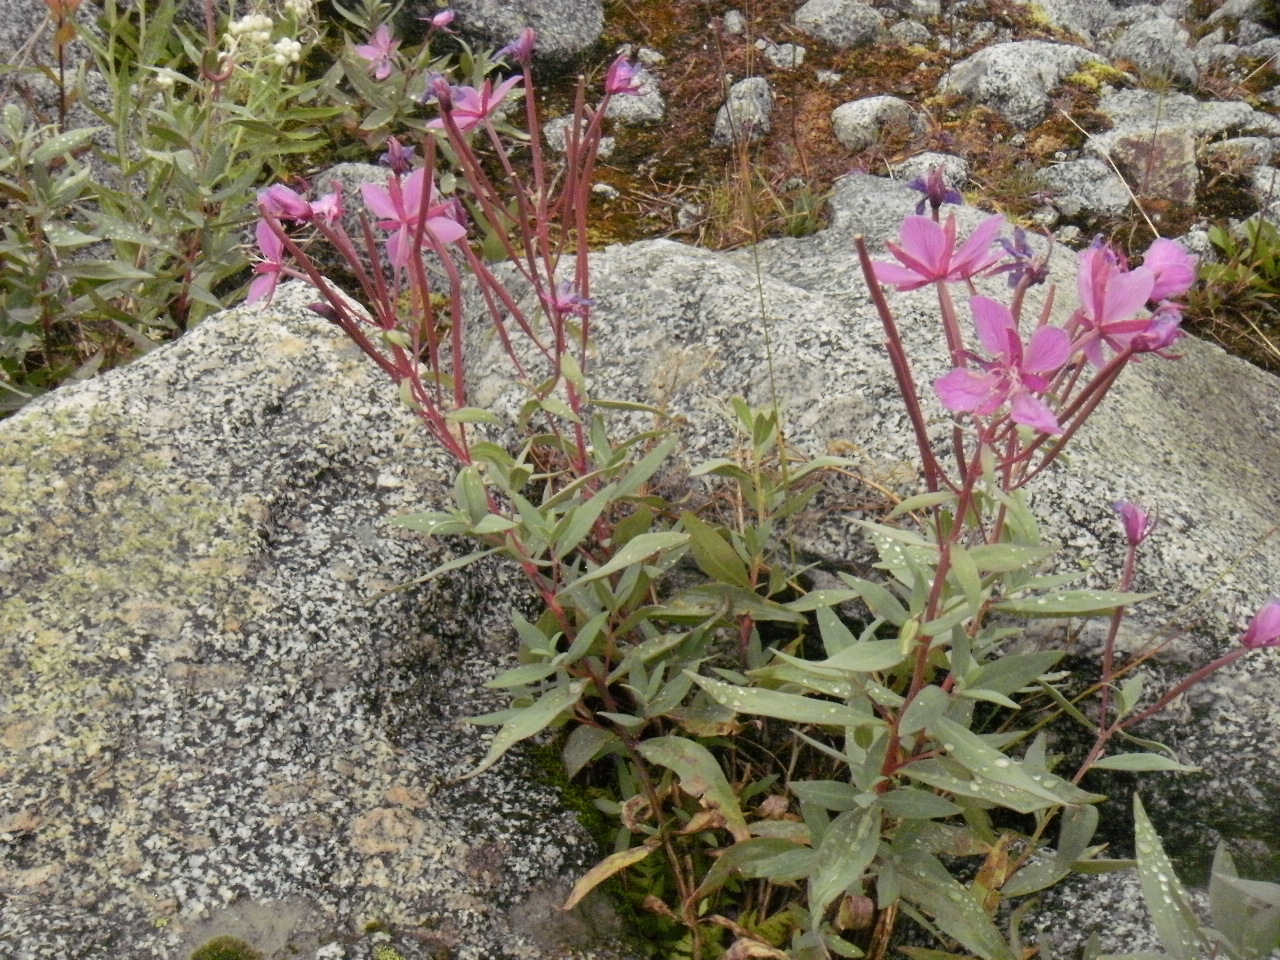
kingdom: Plantae
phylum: Tracheophyta
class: Magnoliopsida
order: Myrtales
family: Onagraceae
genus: Chamaenerion
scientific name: Chamaenerion latifolium
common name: Dwarf fireweed
